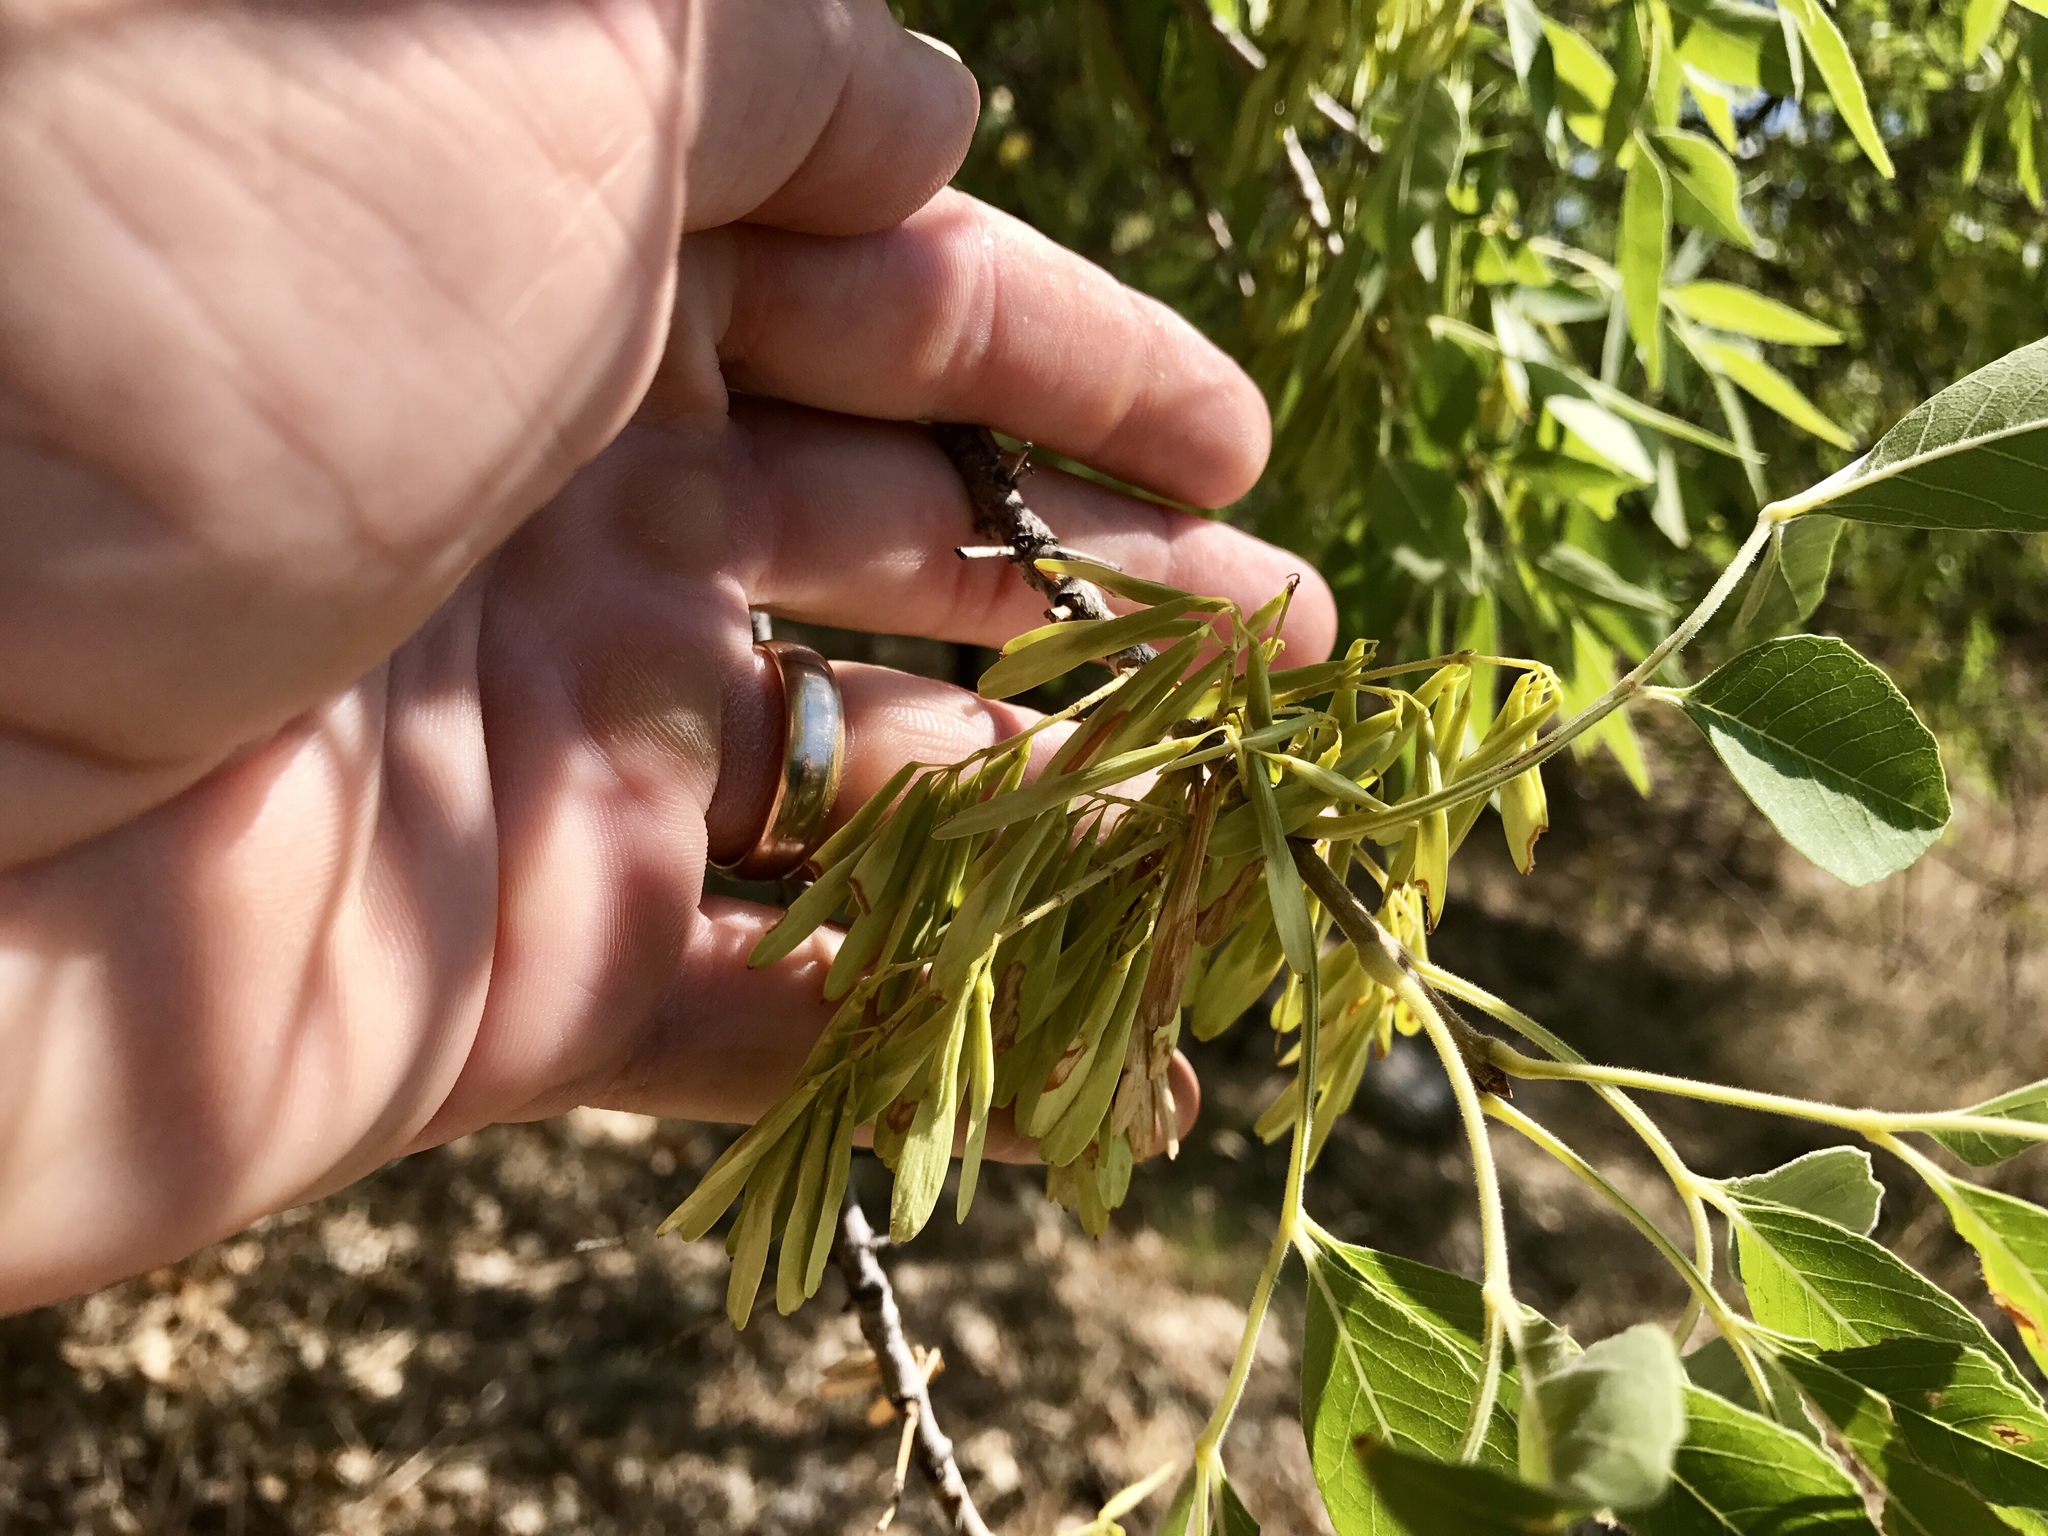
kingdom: Plantae
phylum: Tracheophyta
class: Magnoliopsida
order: Lamiales
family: Oleaceae
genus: Fraxinus
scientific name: Fraxinus velutina
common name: Arizon ash
